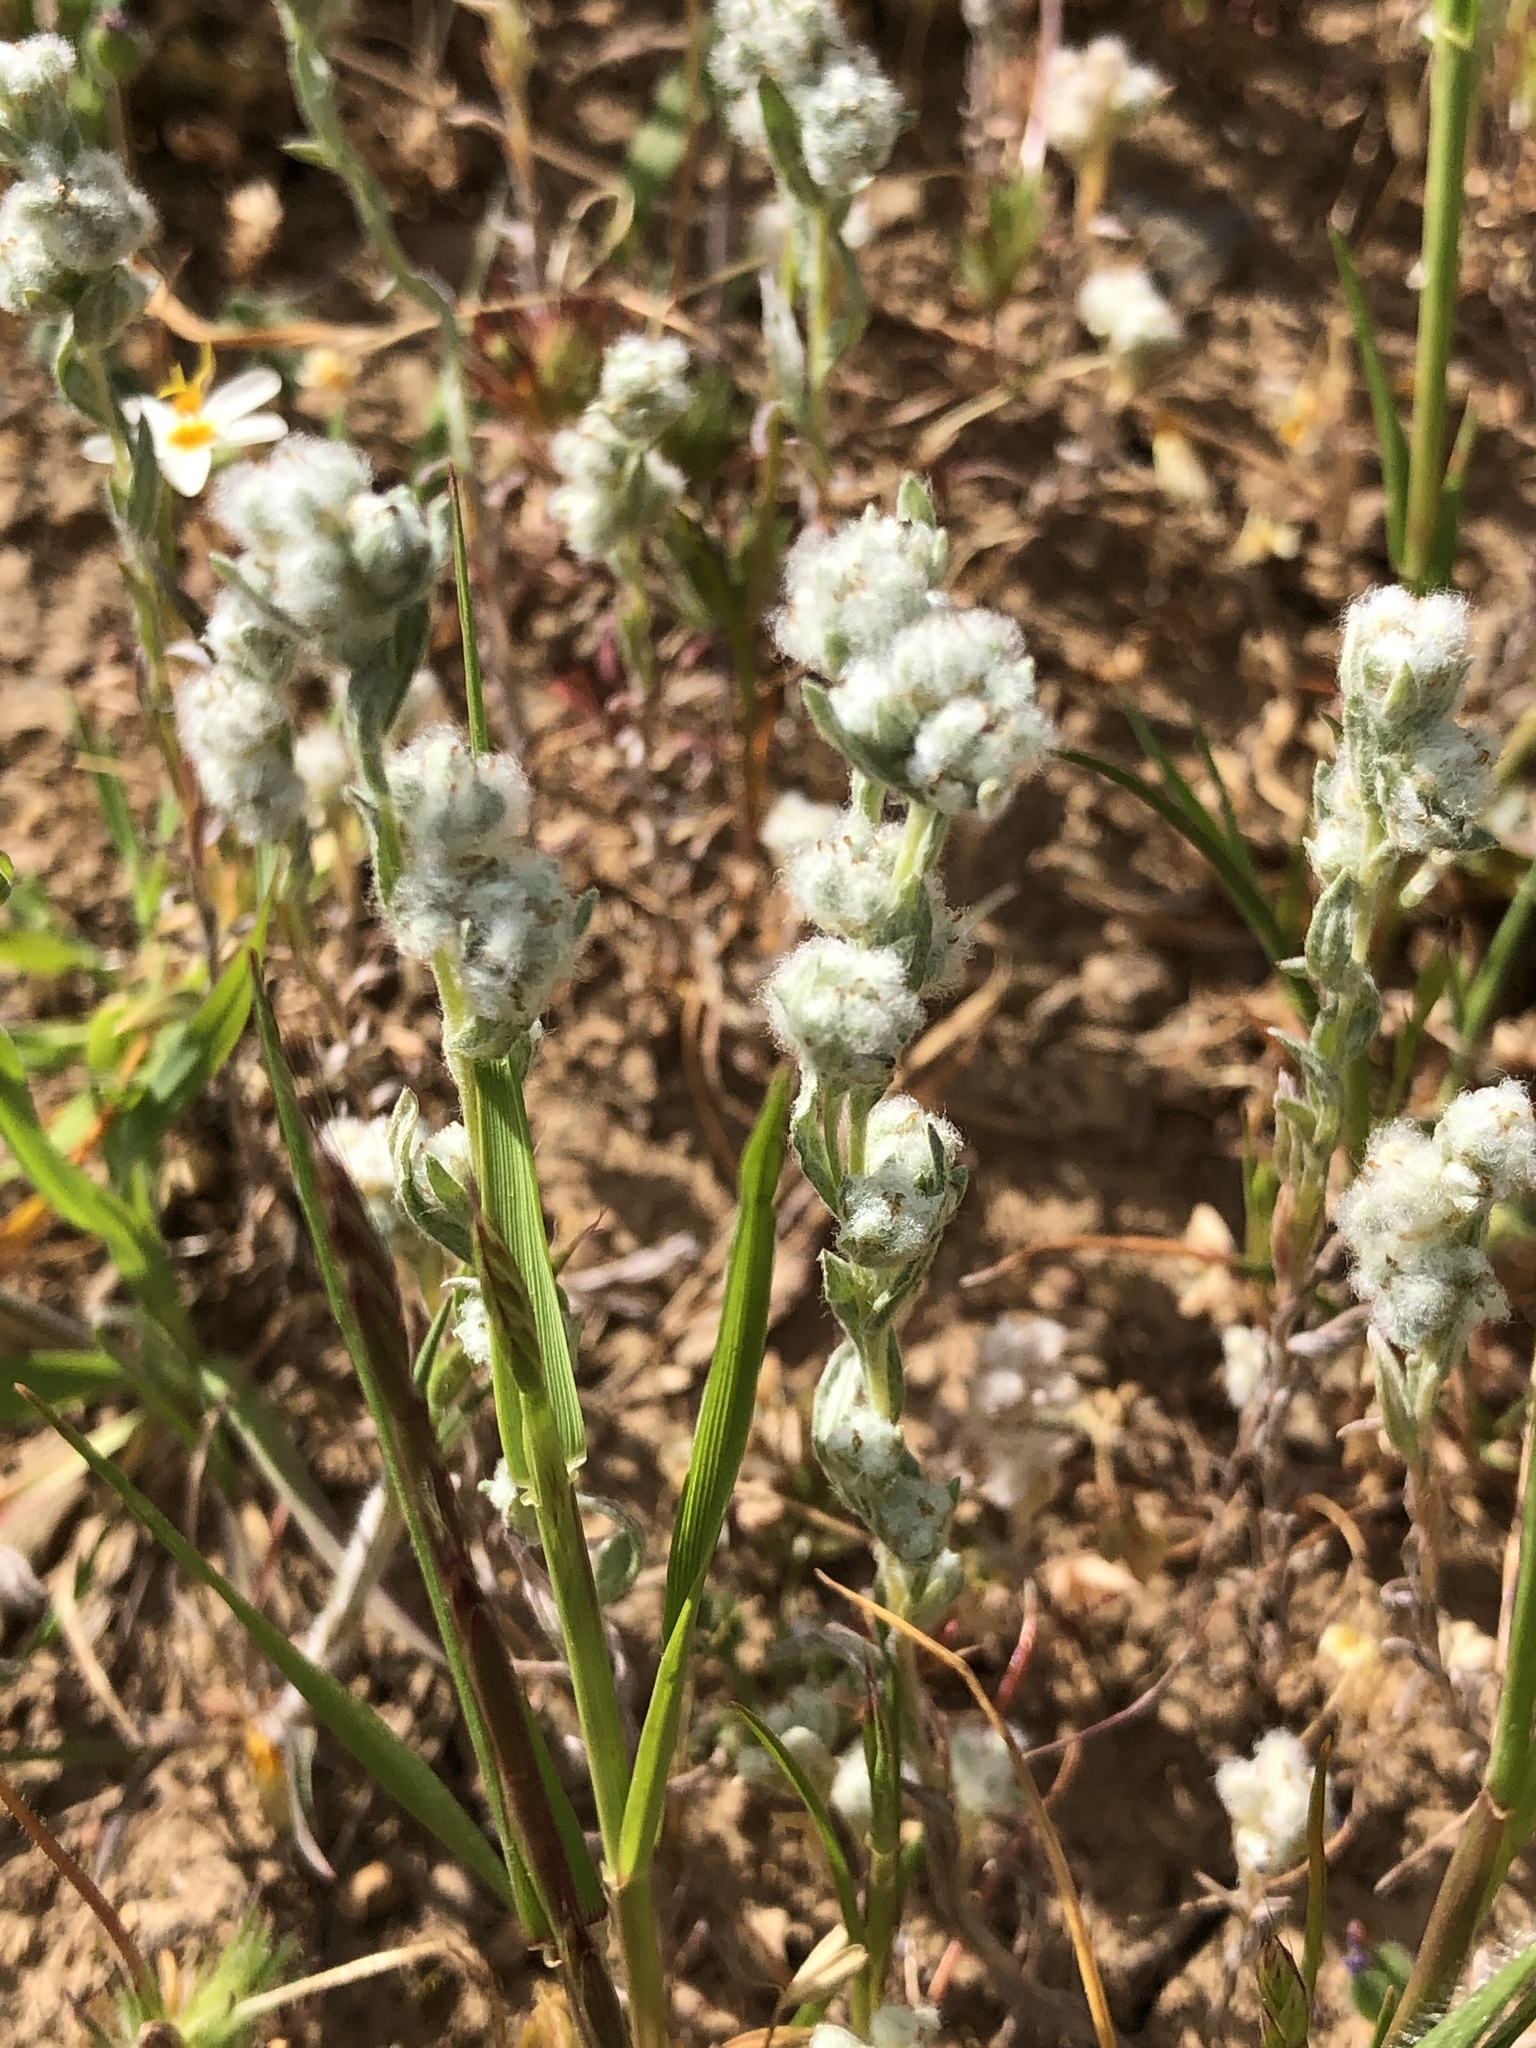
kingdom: Plantae
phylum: Tracheophyta
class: Magnoliopsida
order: Asterales
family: Asteraceae
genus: Bombycilaena
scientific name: Bombycilaena californica
